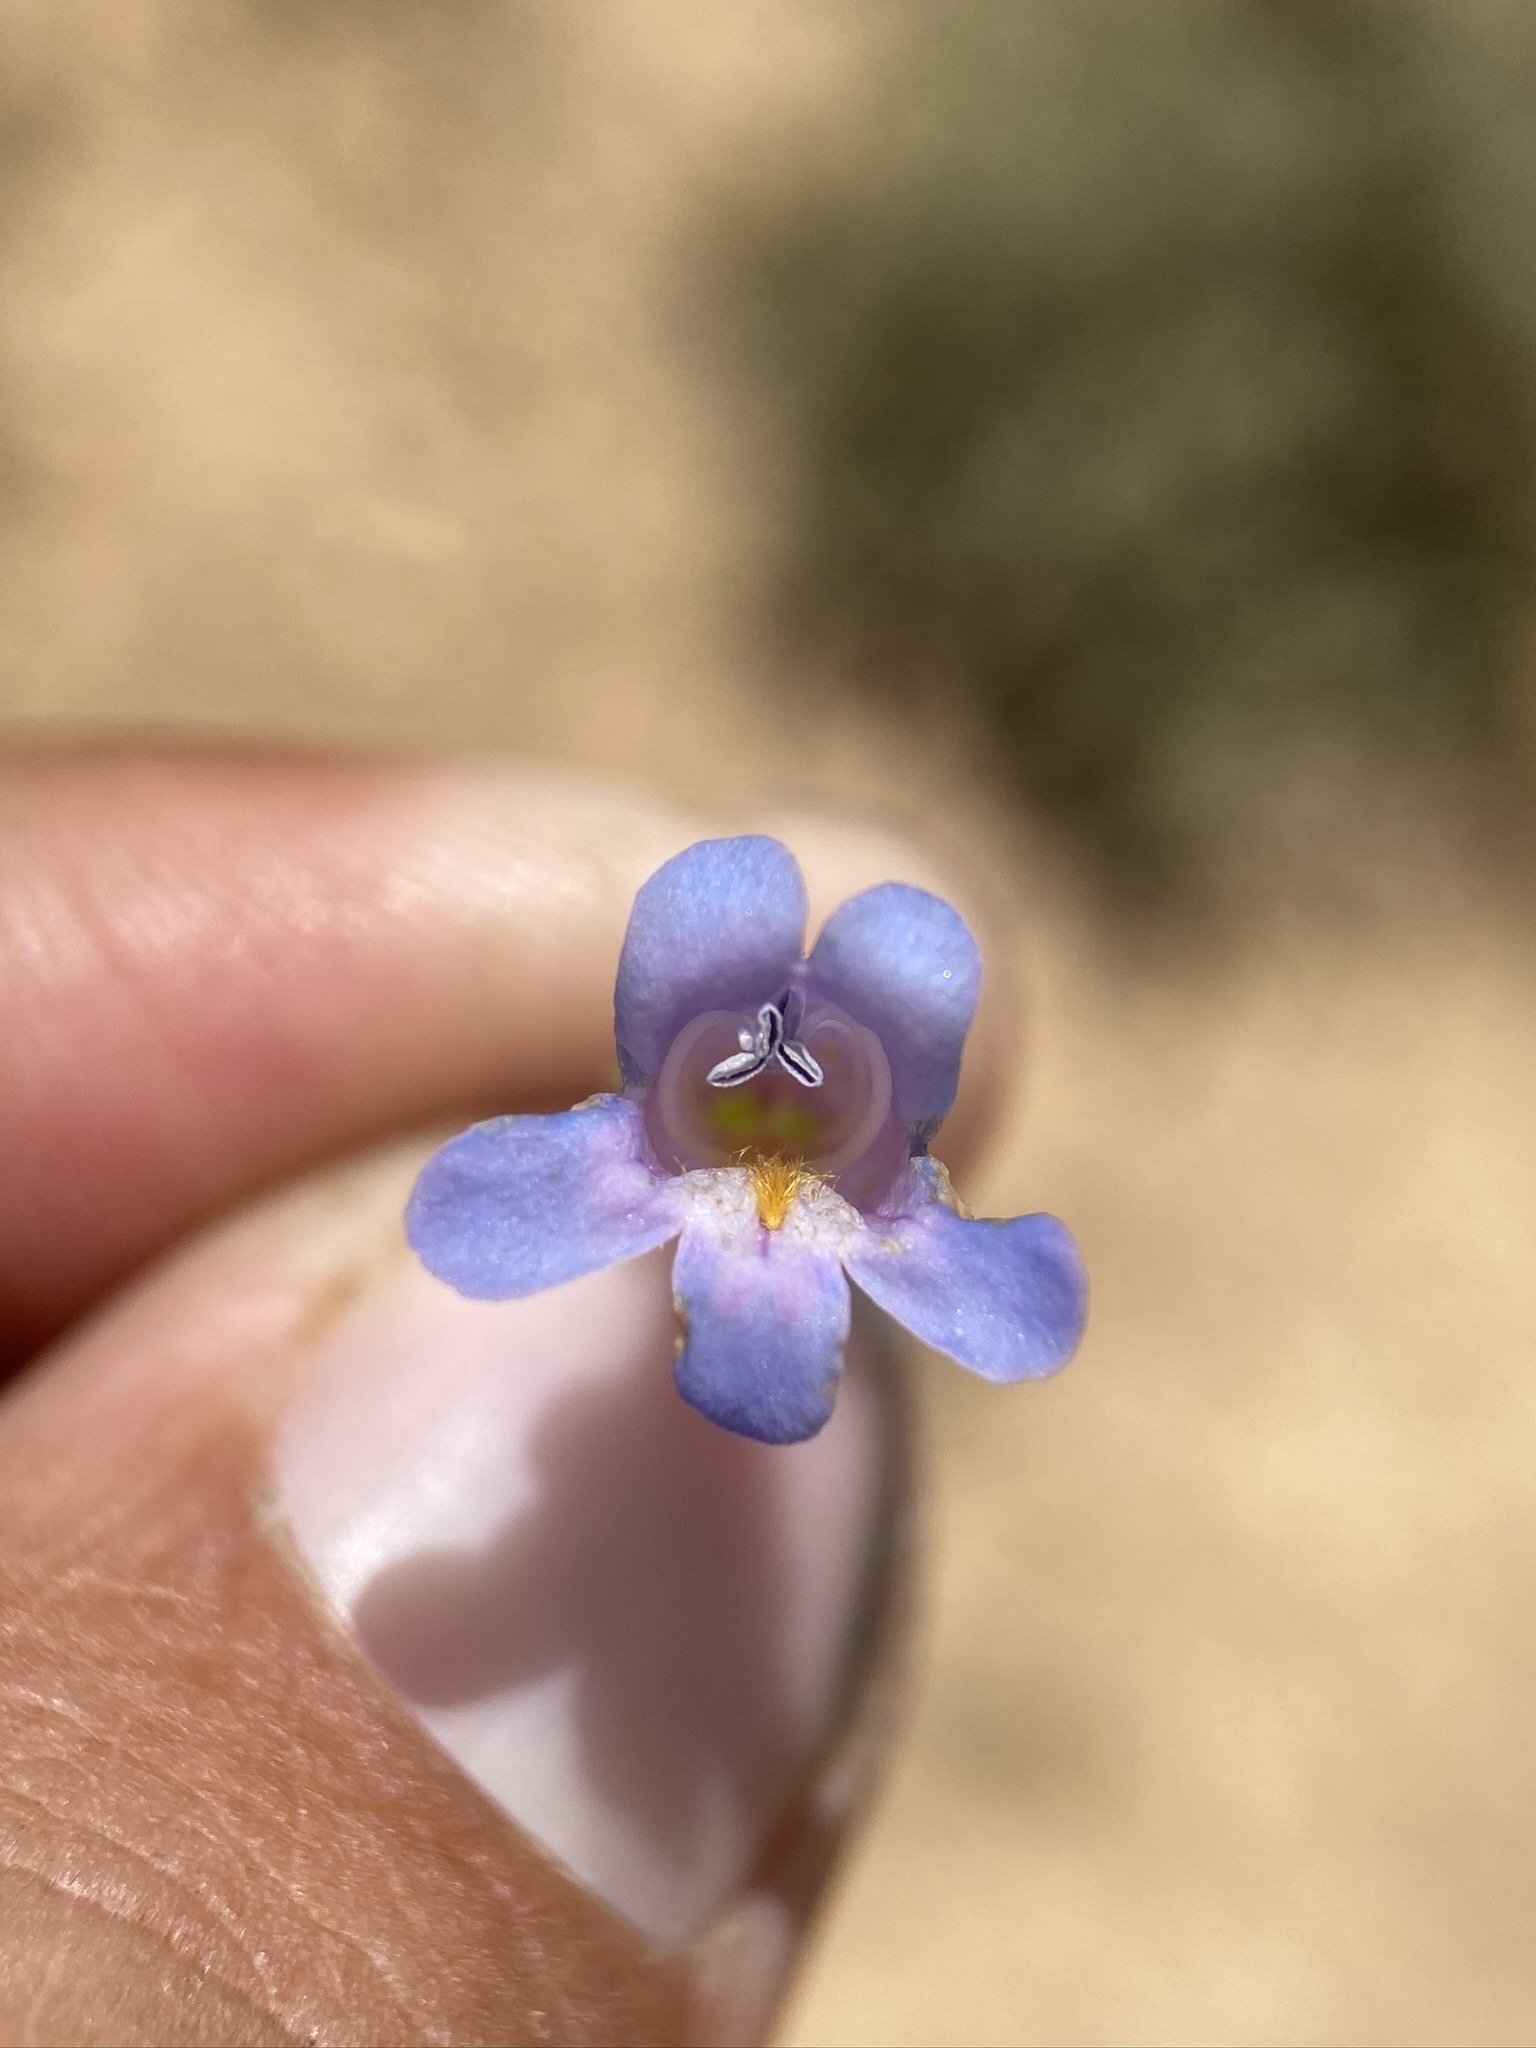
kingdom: Plantae
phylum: Tracheophyta
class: Magnoliopsida
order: Lamiales
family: Plantaginaceae
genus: Penstemon
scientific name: Penstemon caespitosus
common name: Mat penstemon
